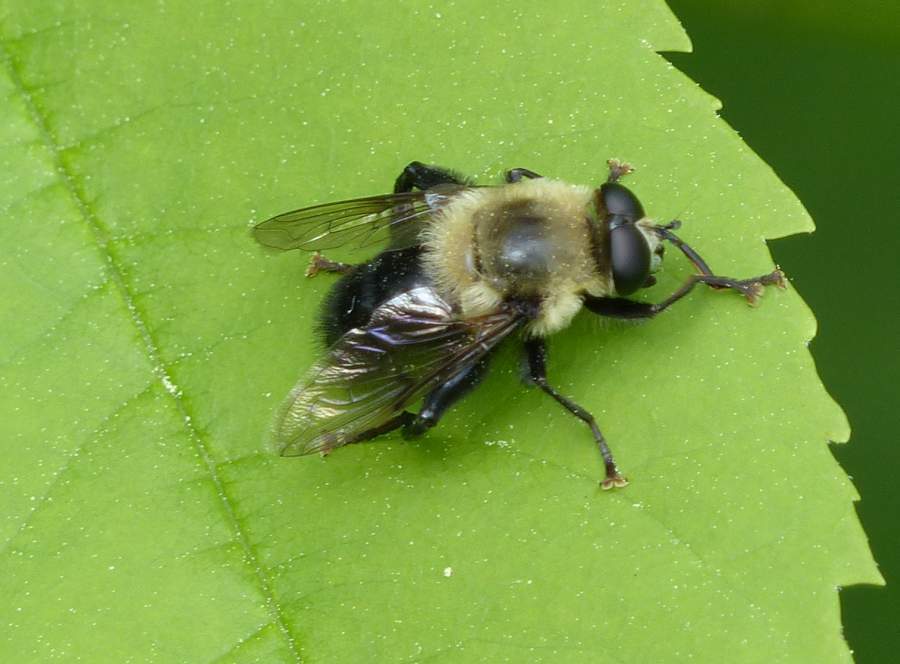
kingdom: Animalia
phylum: Arthropoda
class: Insecta
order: Diptera
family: Syrphidae
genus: Imatisma
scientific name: Imatisma bautias
